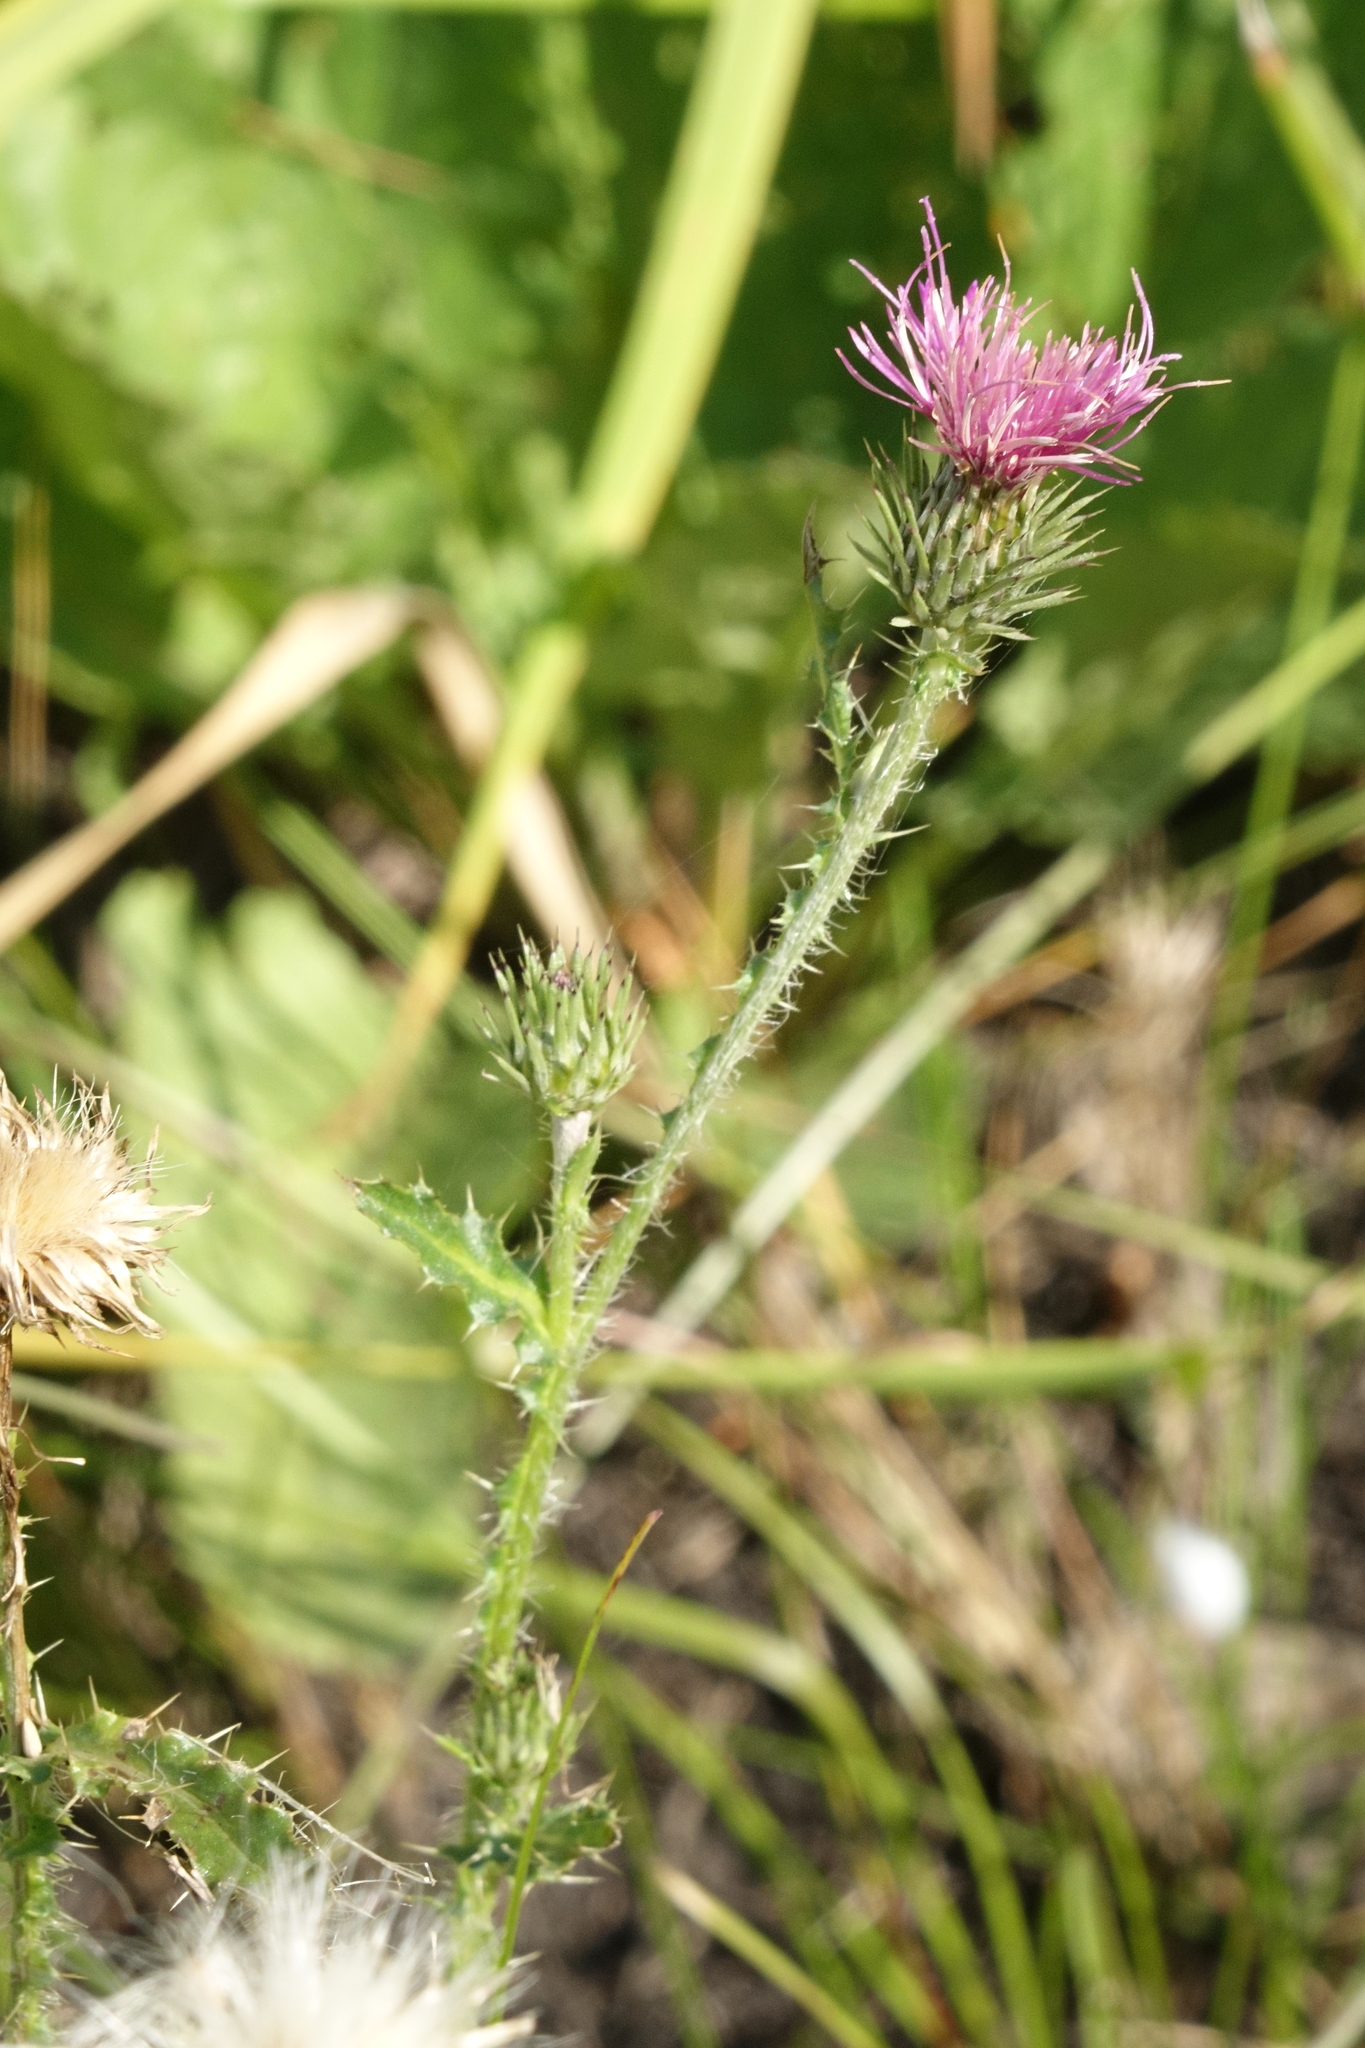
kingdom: Plantae
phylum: Tracheophyta
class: Magnoliopsida
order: Asterales
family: Asteraceae
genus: Carduus
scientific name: Carduus acanthoides
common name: Plumeless thistle
